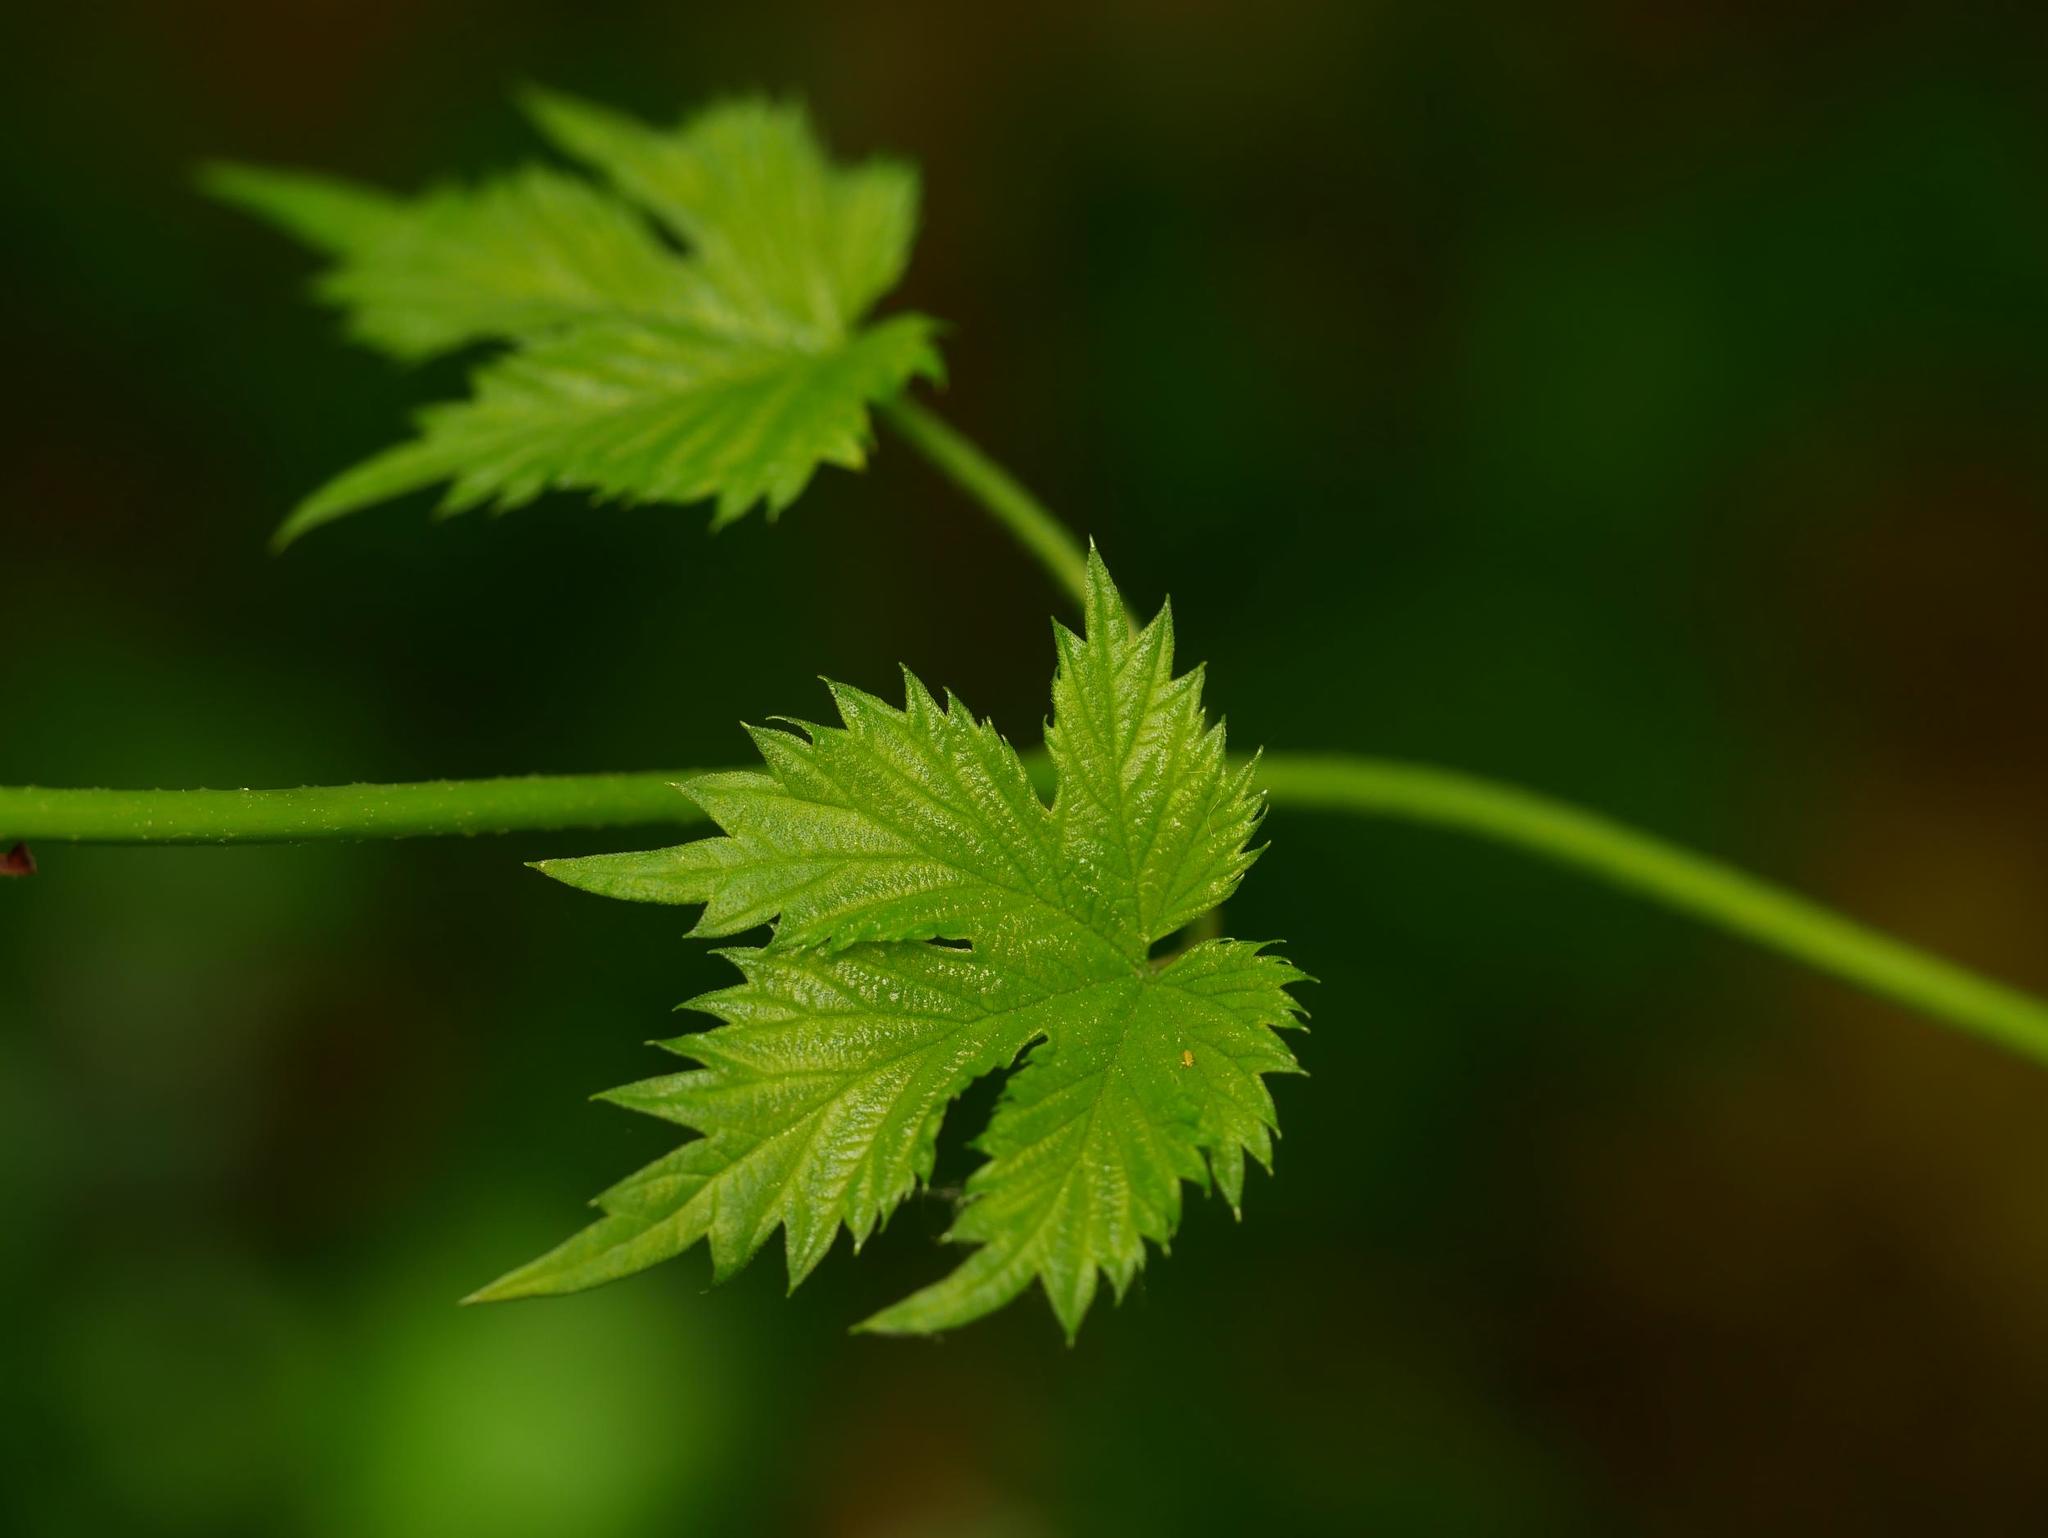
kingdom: Plantae
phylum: Tracheophyta
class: Magnoliopsida
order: Rosales
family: Cannabaceae
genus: Humulus
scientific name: Humulus lupulus
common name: Hop
